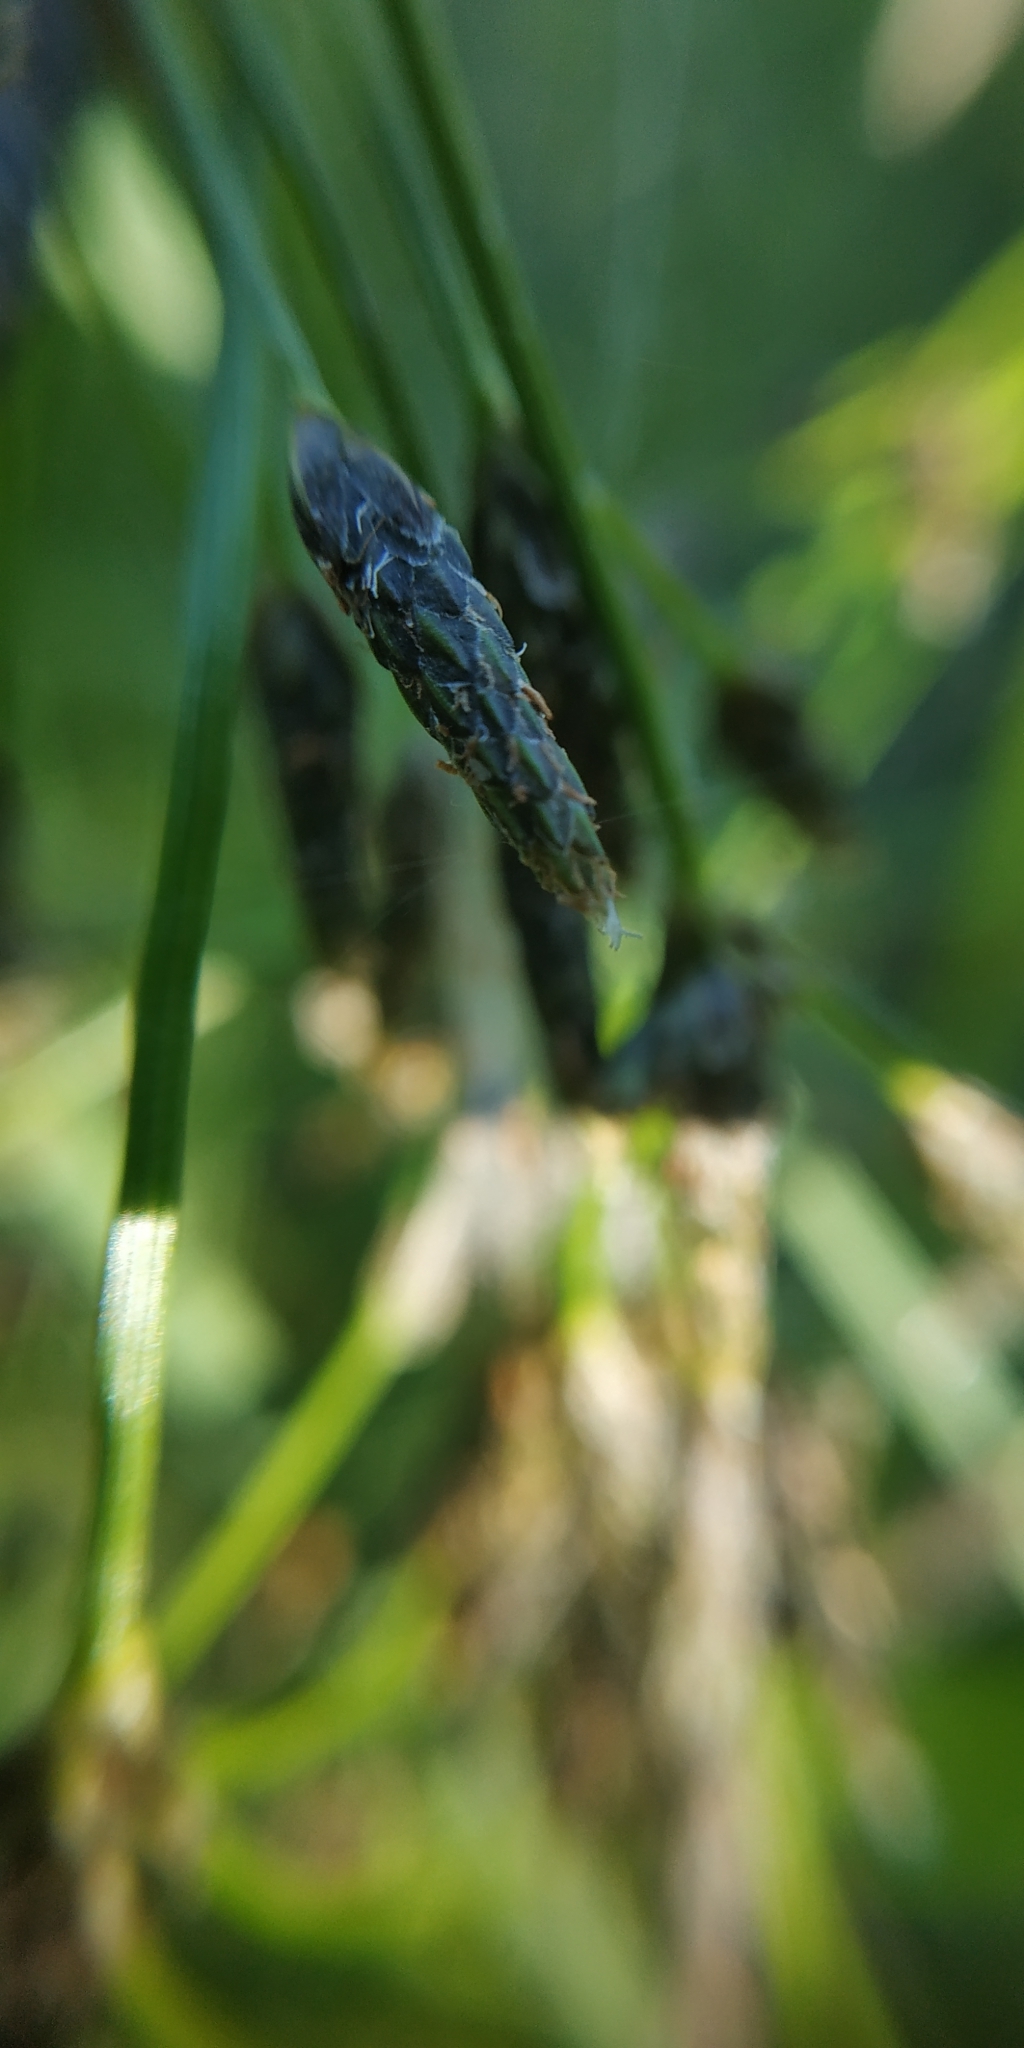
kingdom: Plantae
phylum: Tracheophyta
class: Liliopsida
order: Poales
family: Cyperaceae
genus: Scirpus
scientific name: Scirpus radicans
